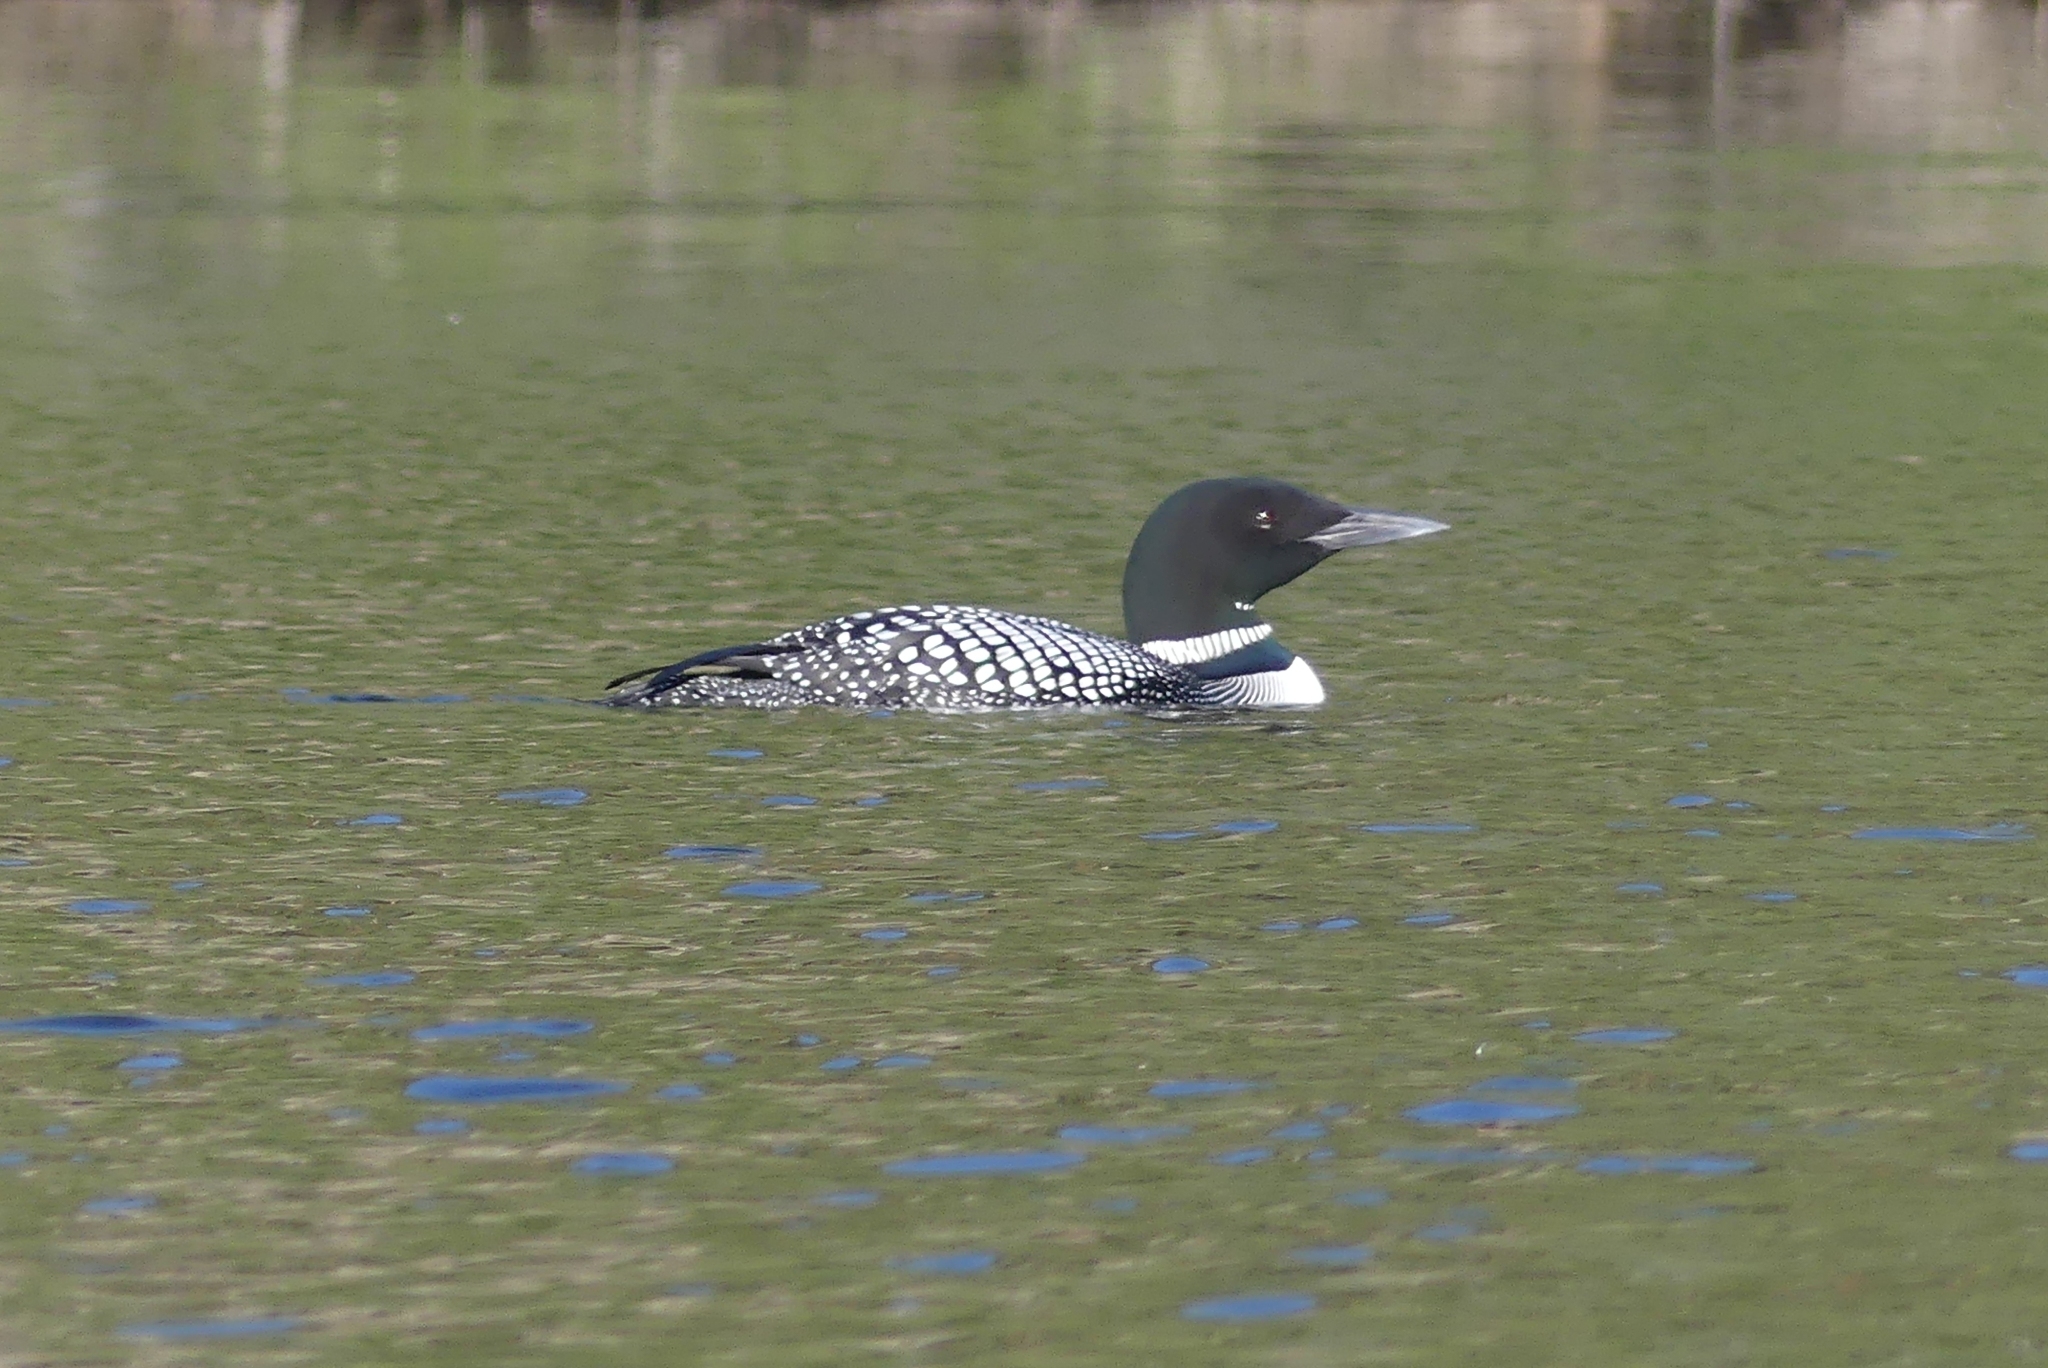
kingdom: Animalia
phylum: Chordata
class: Aves
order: Gaviiformes
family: Gaviidae
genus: Gavia
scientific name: Gavia immer
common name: Common loon
